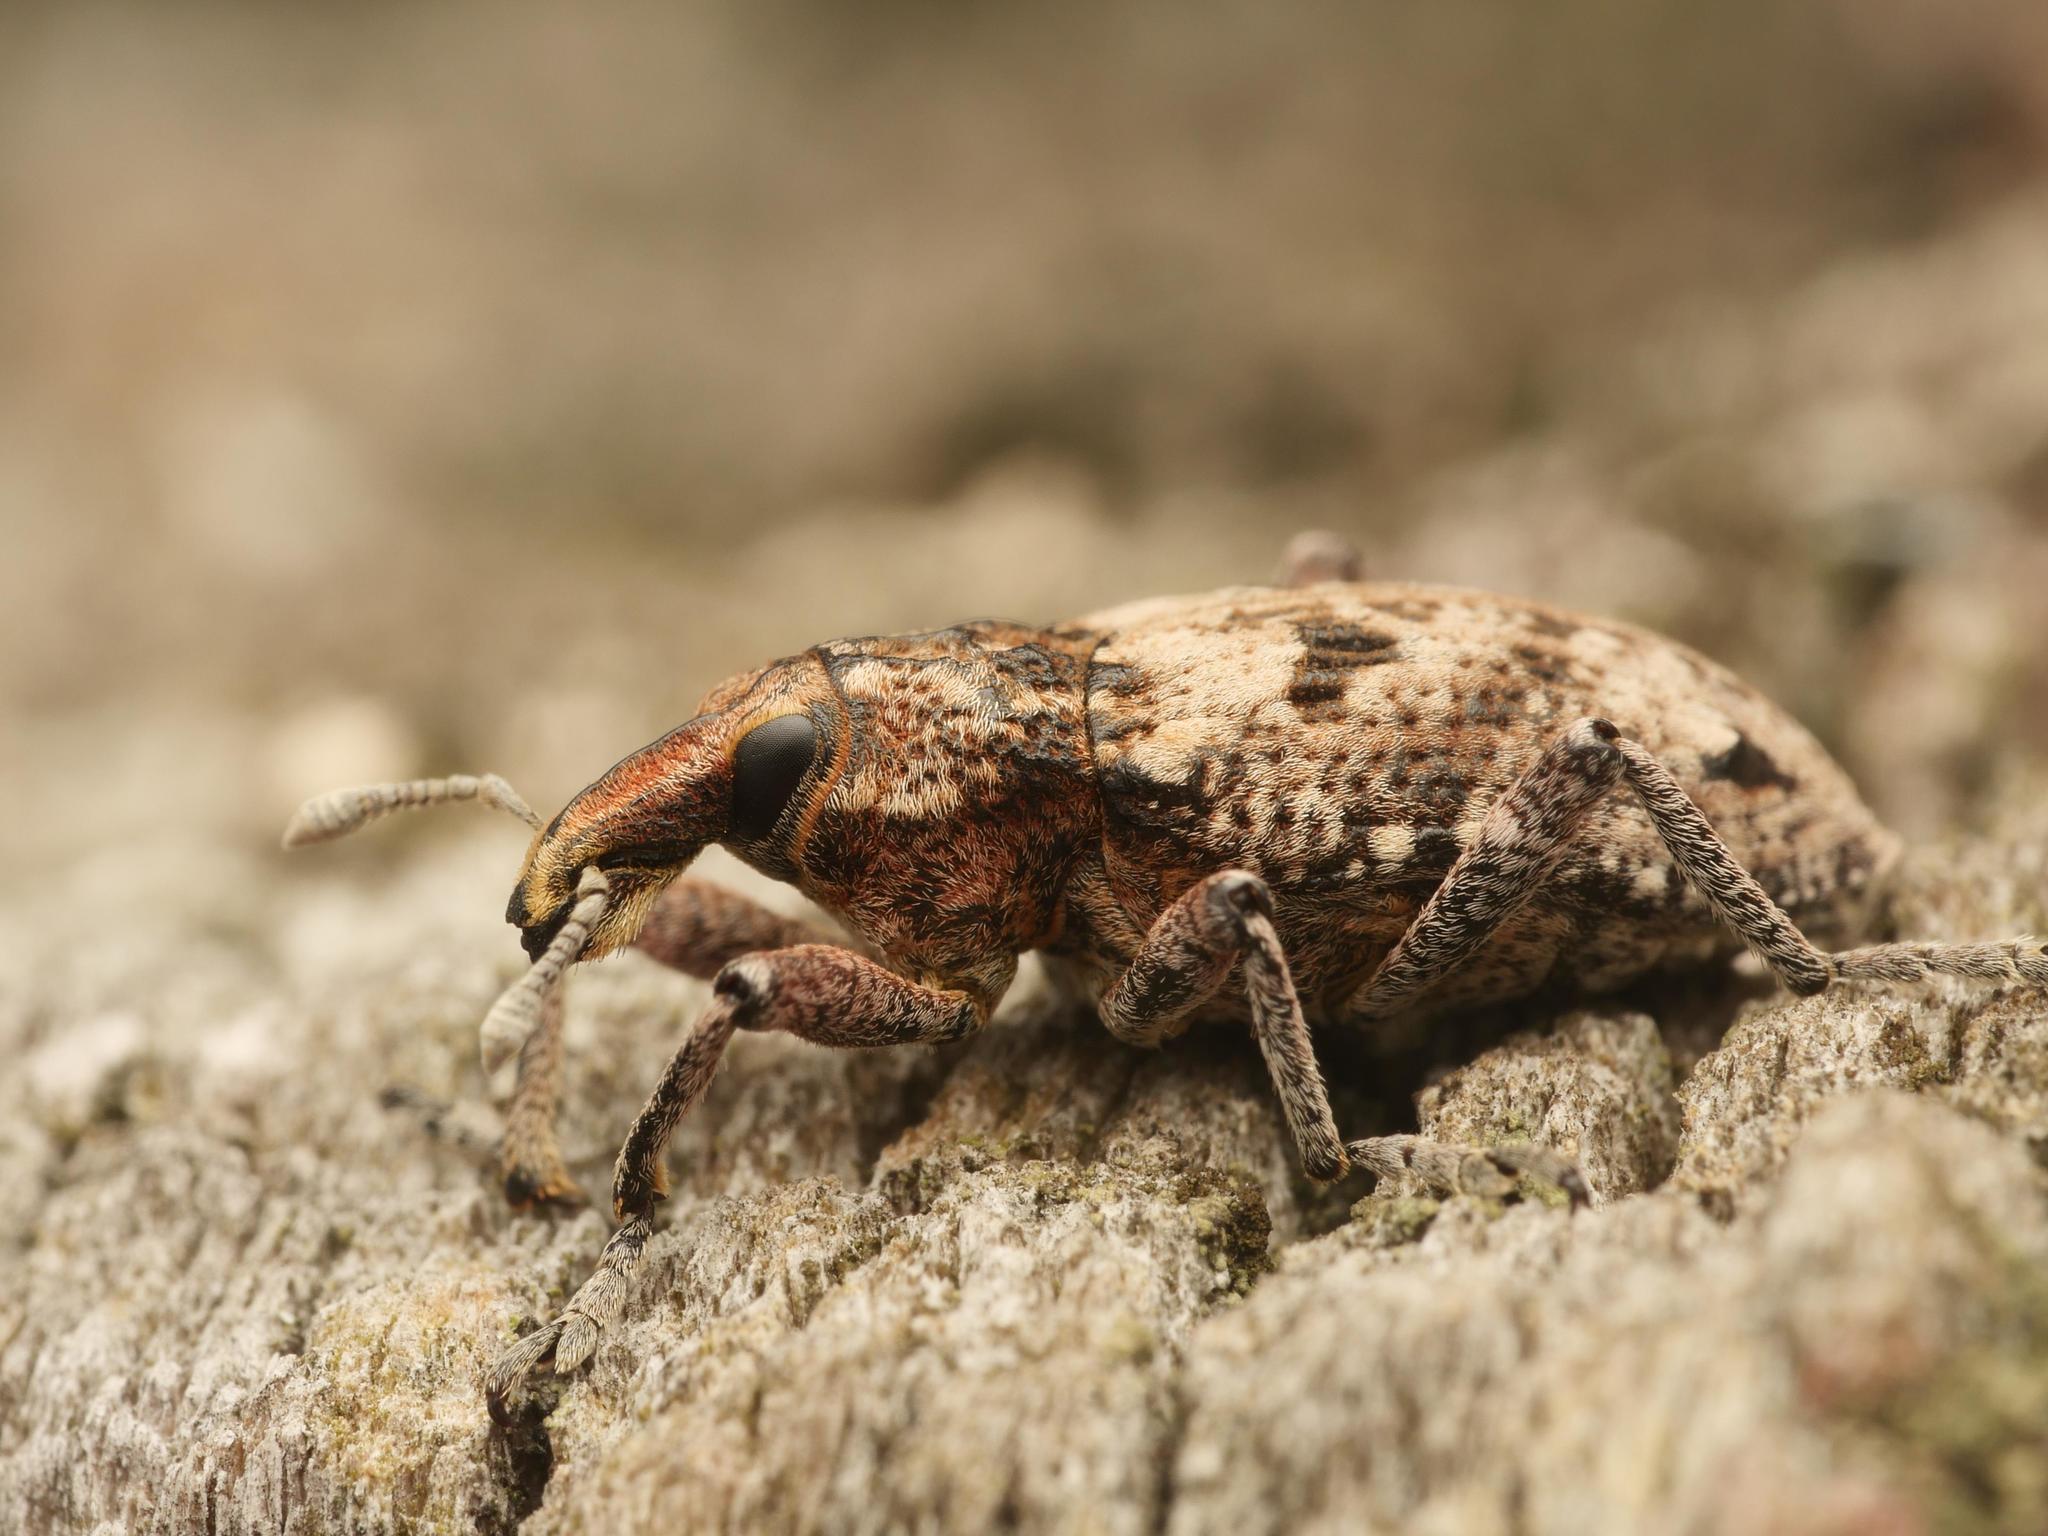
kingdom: Animalia
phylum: Arthropoda
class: Insecta
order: Coleoptera
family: Curculionidae
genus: Coniocleonus
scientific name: Coniocleonus turbatus
